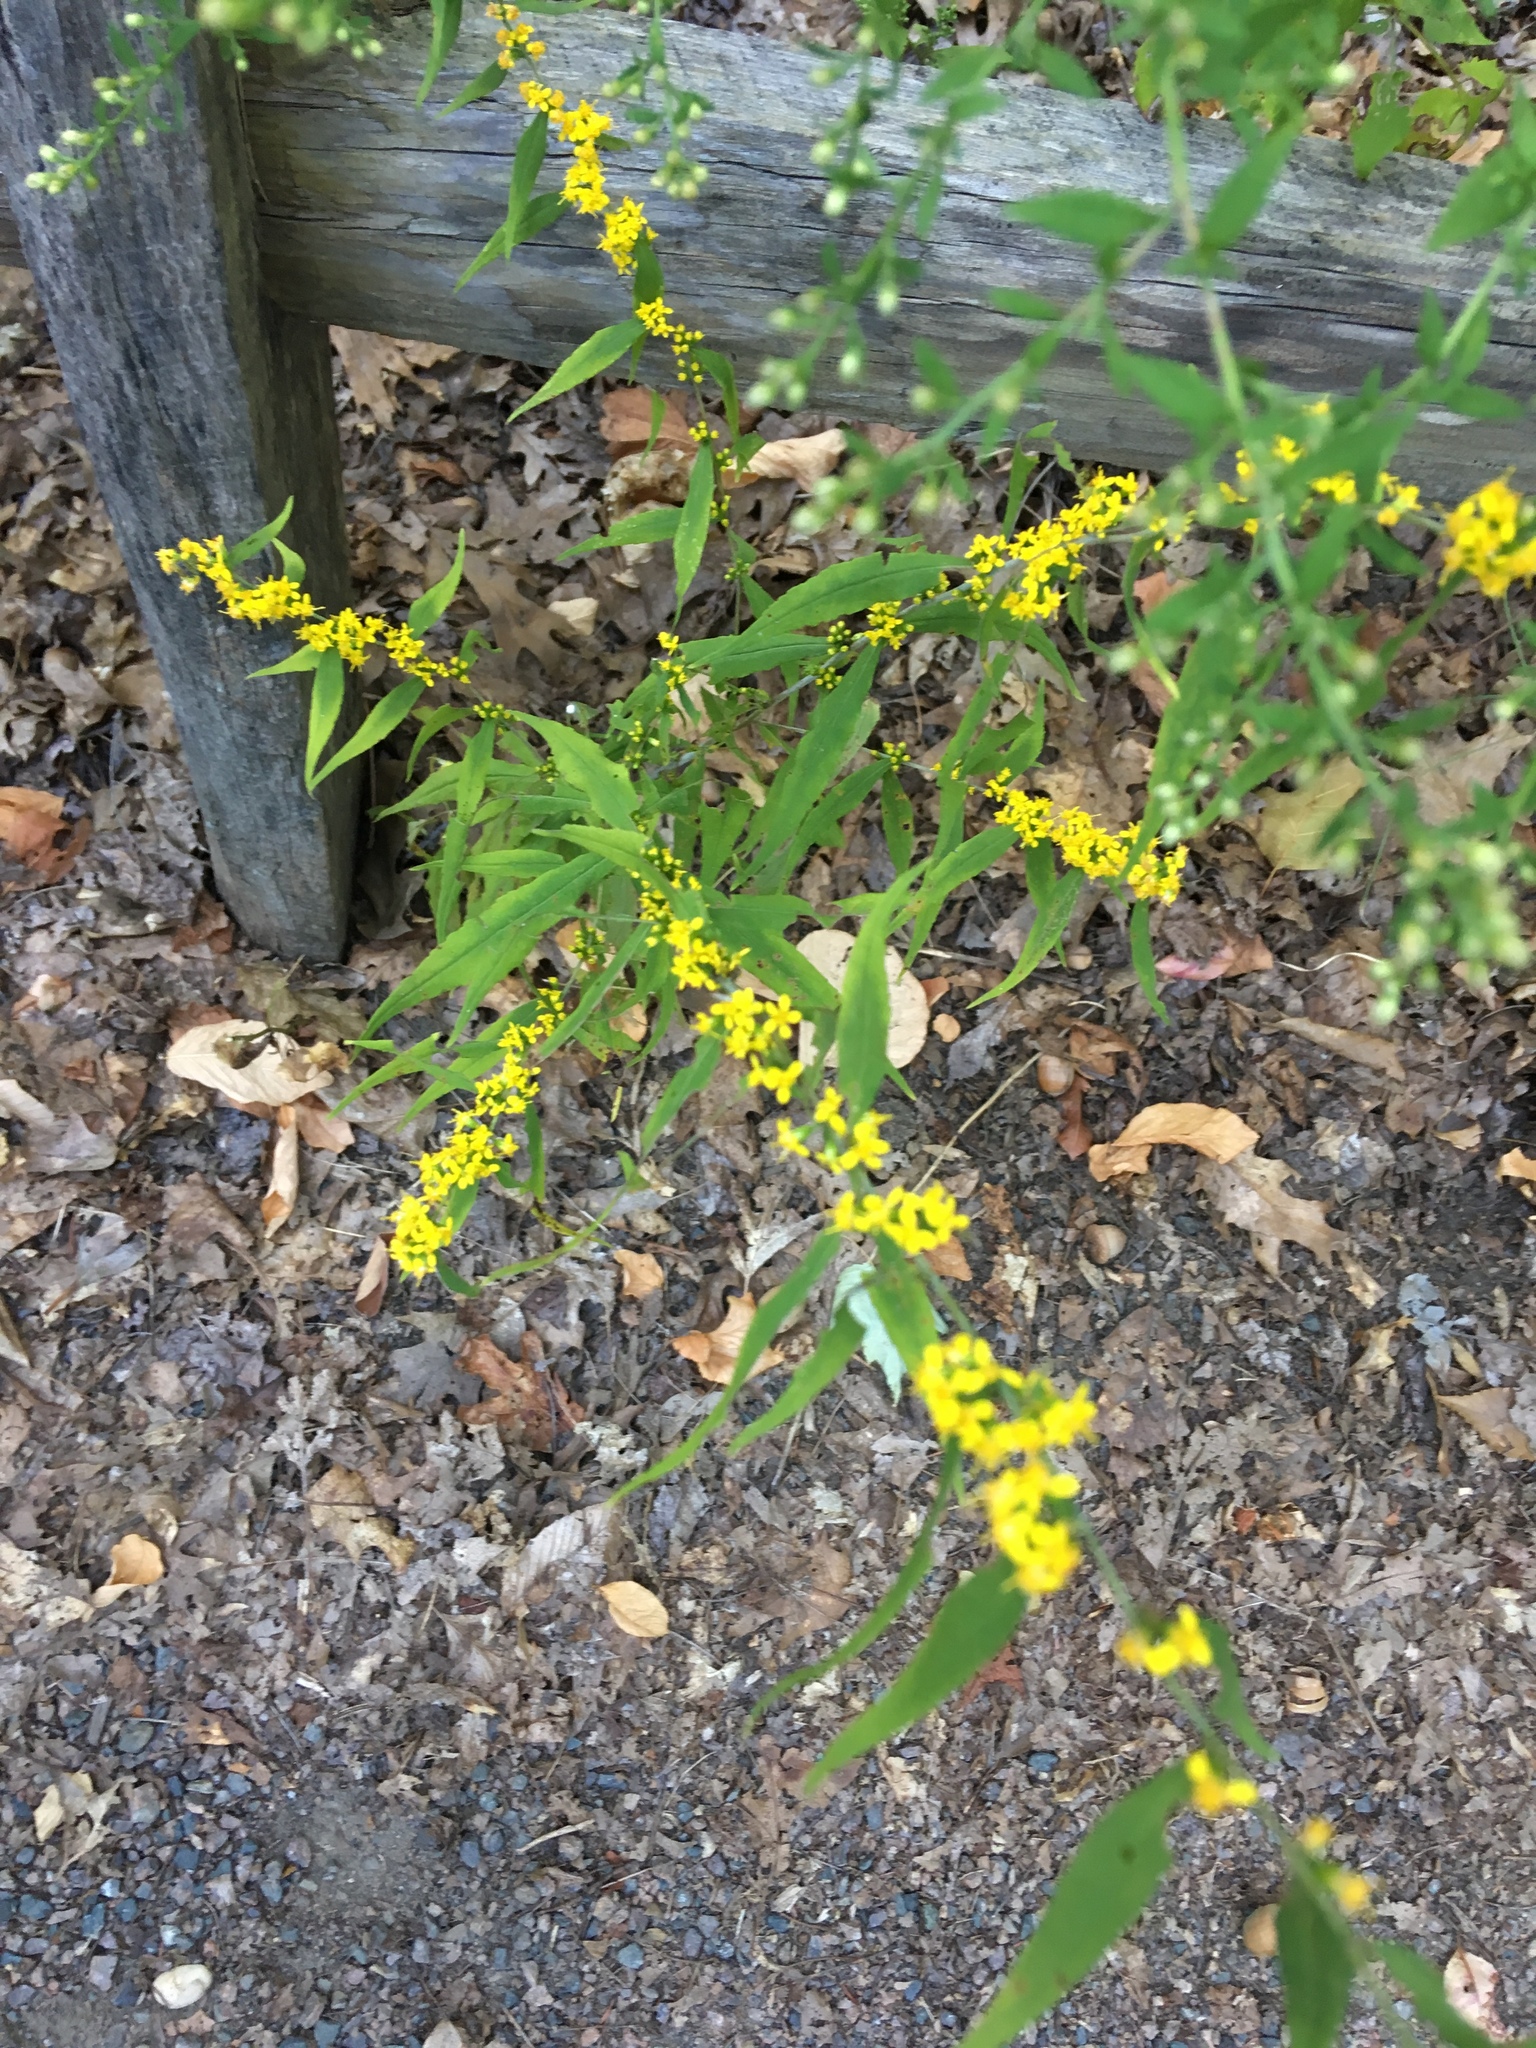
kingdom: Plantae
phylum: Tracheophyta
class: Magnoliopsida
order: Asterales
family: Asteraceae
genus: Solidago
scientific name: Solidago caesia
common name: Woodland goldenrod
